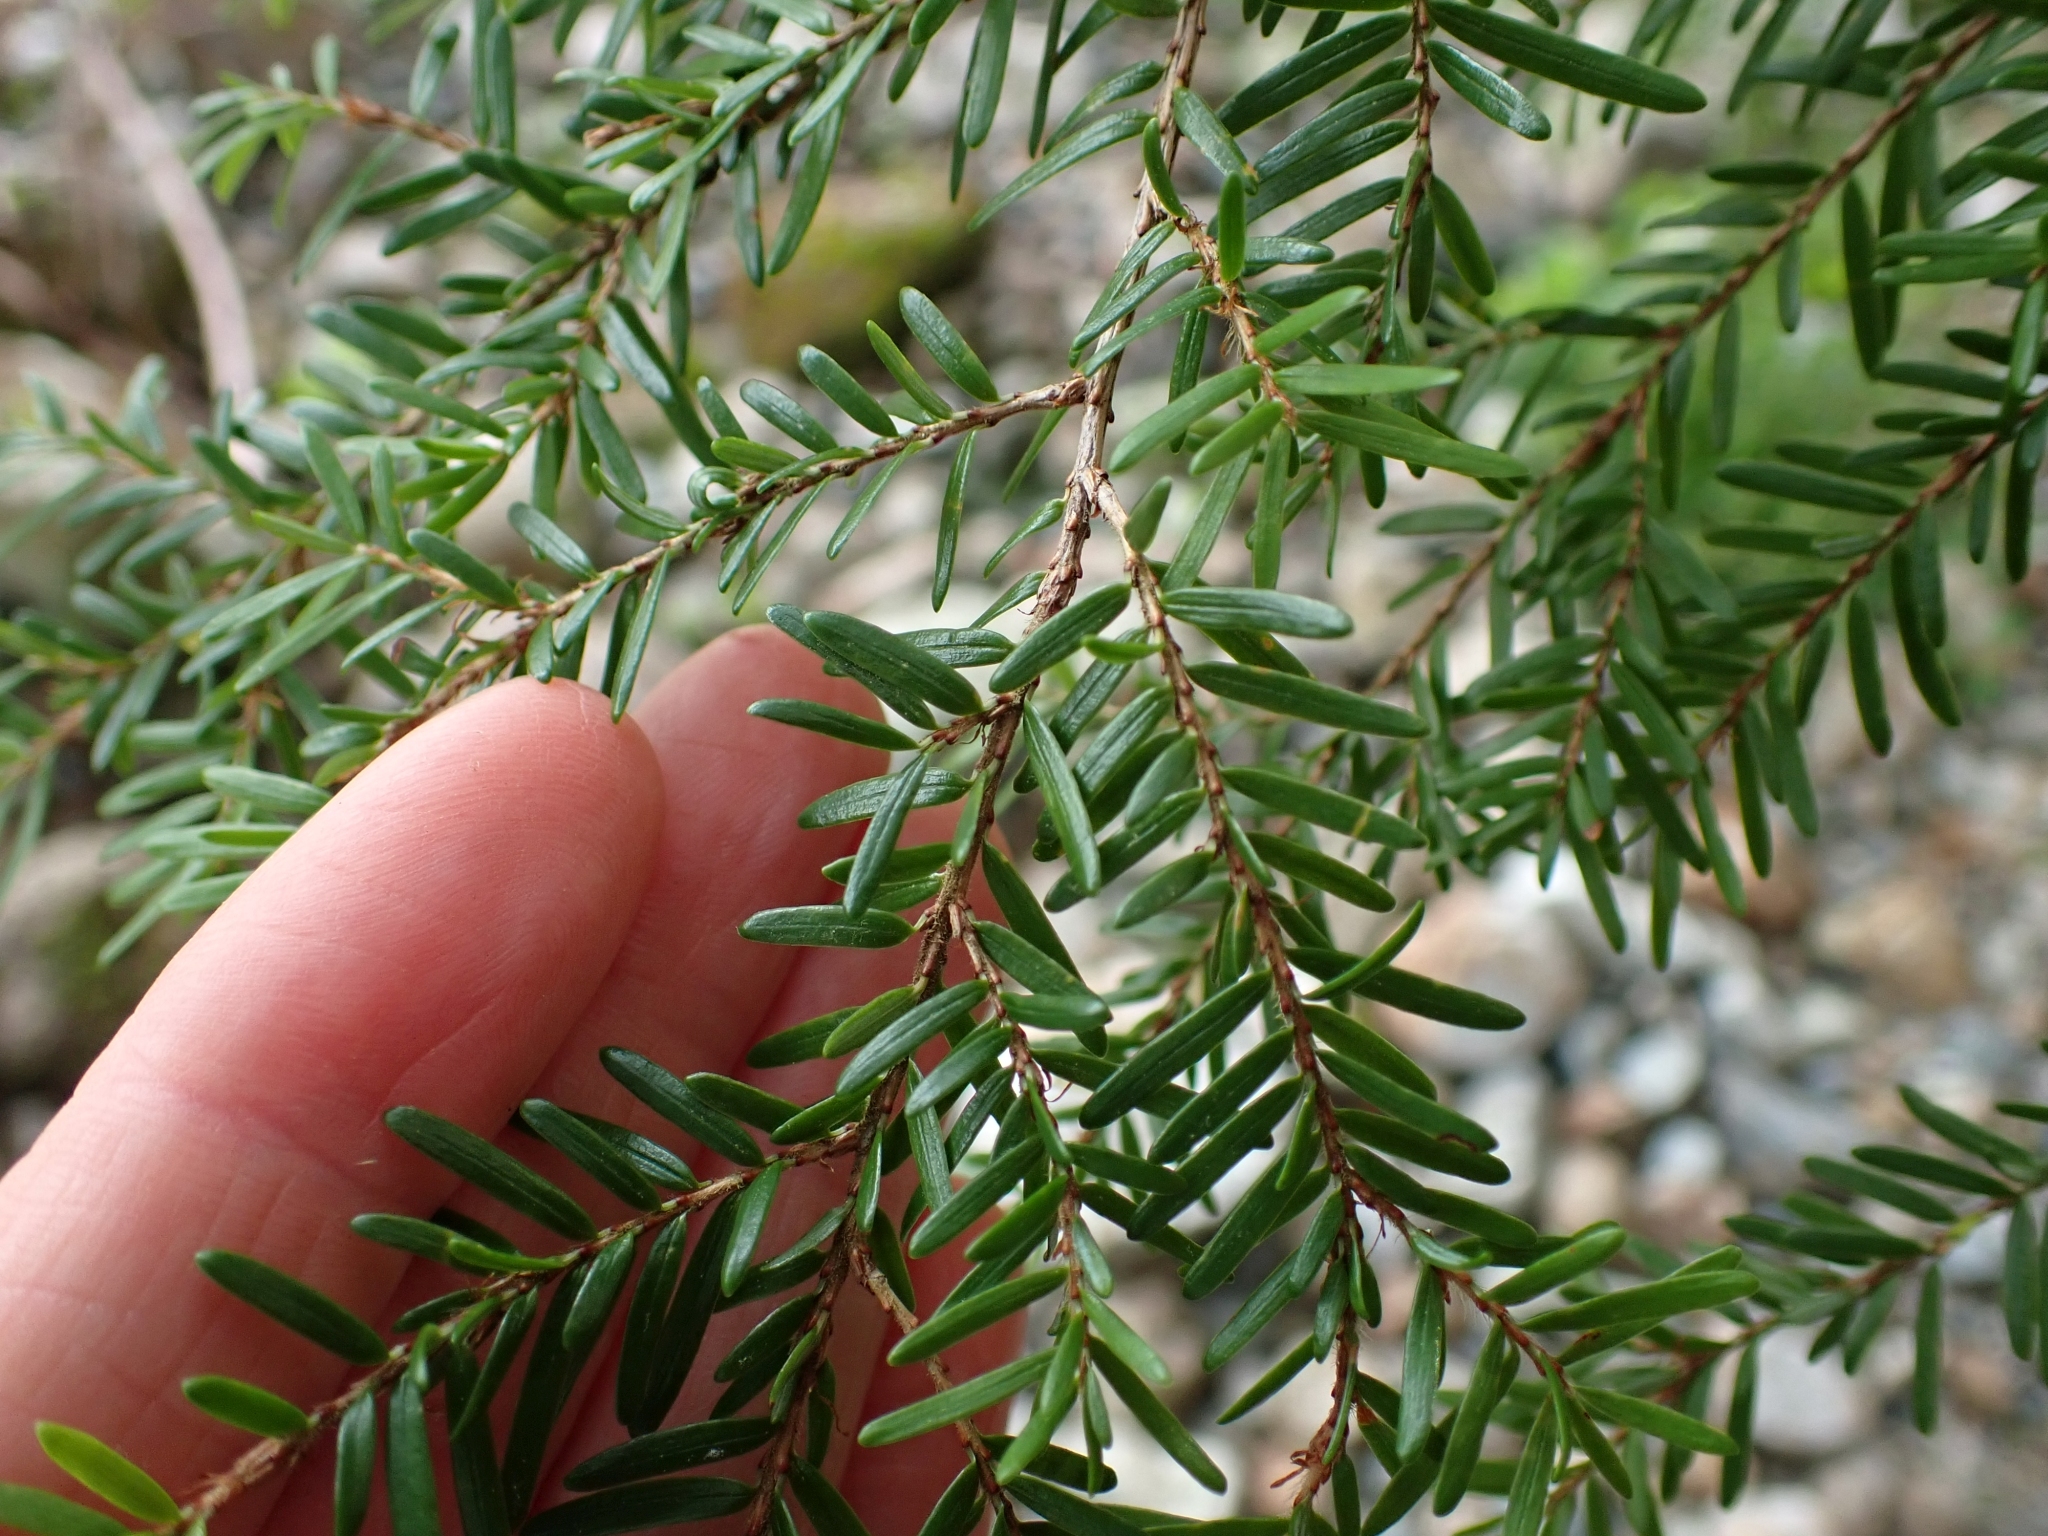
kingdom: Plantae
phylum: Tracheophyta
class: Pinopsida
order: Pinales
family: Pinaceae
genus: Tsuga
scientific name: Tsuga heterophylla
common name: Western hemlock
